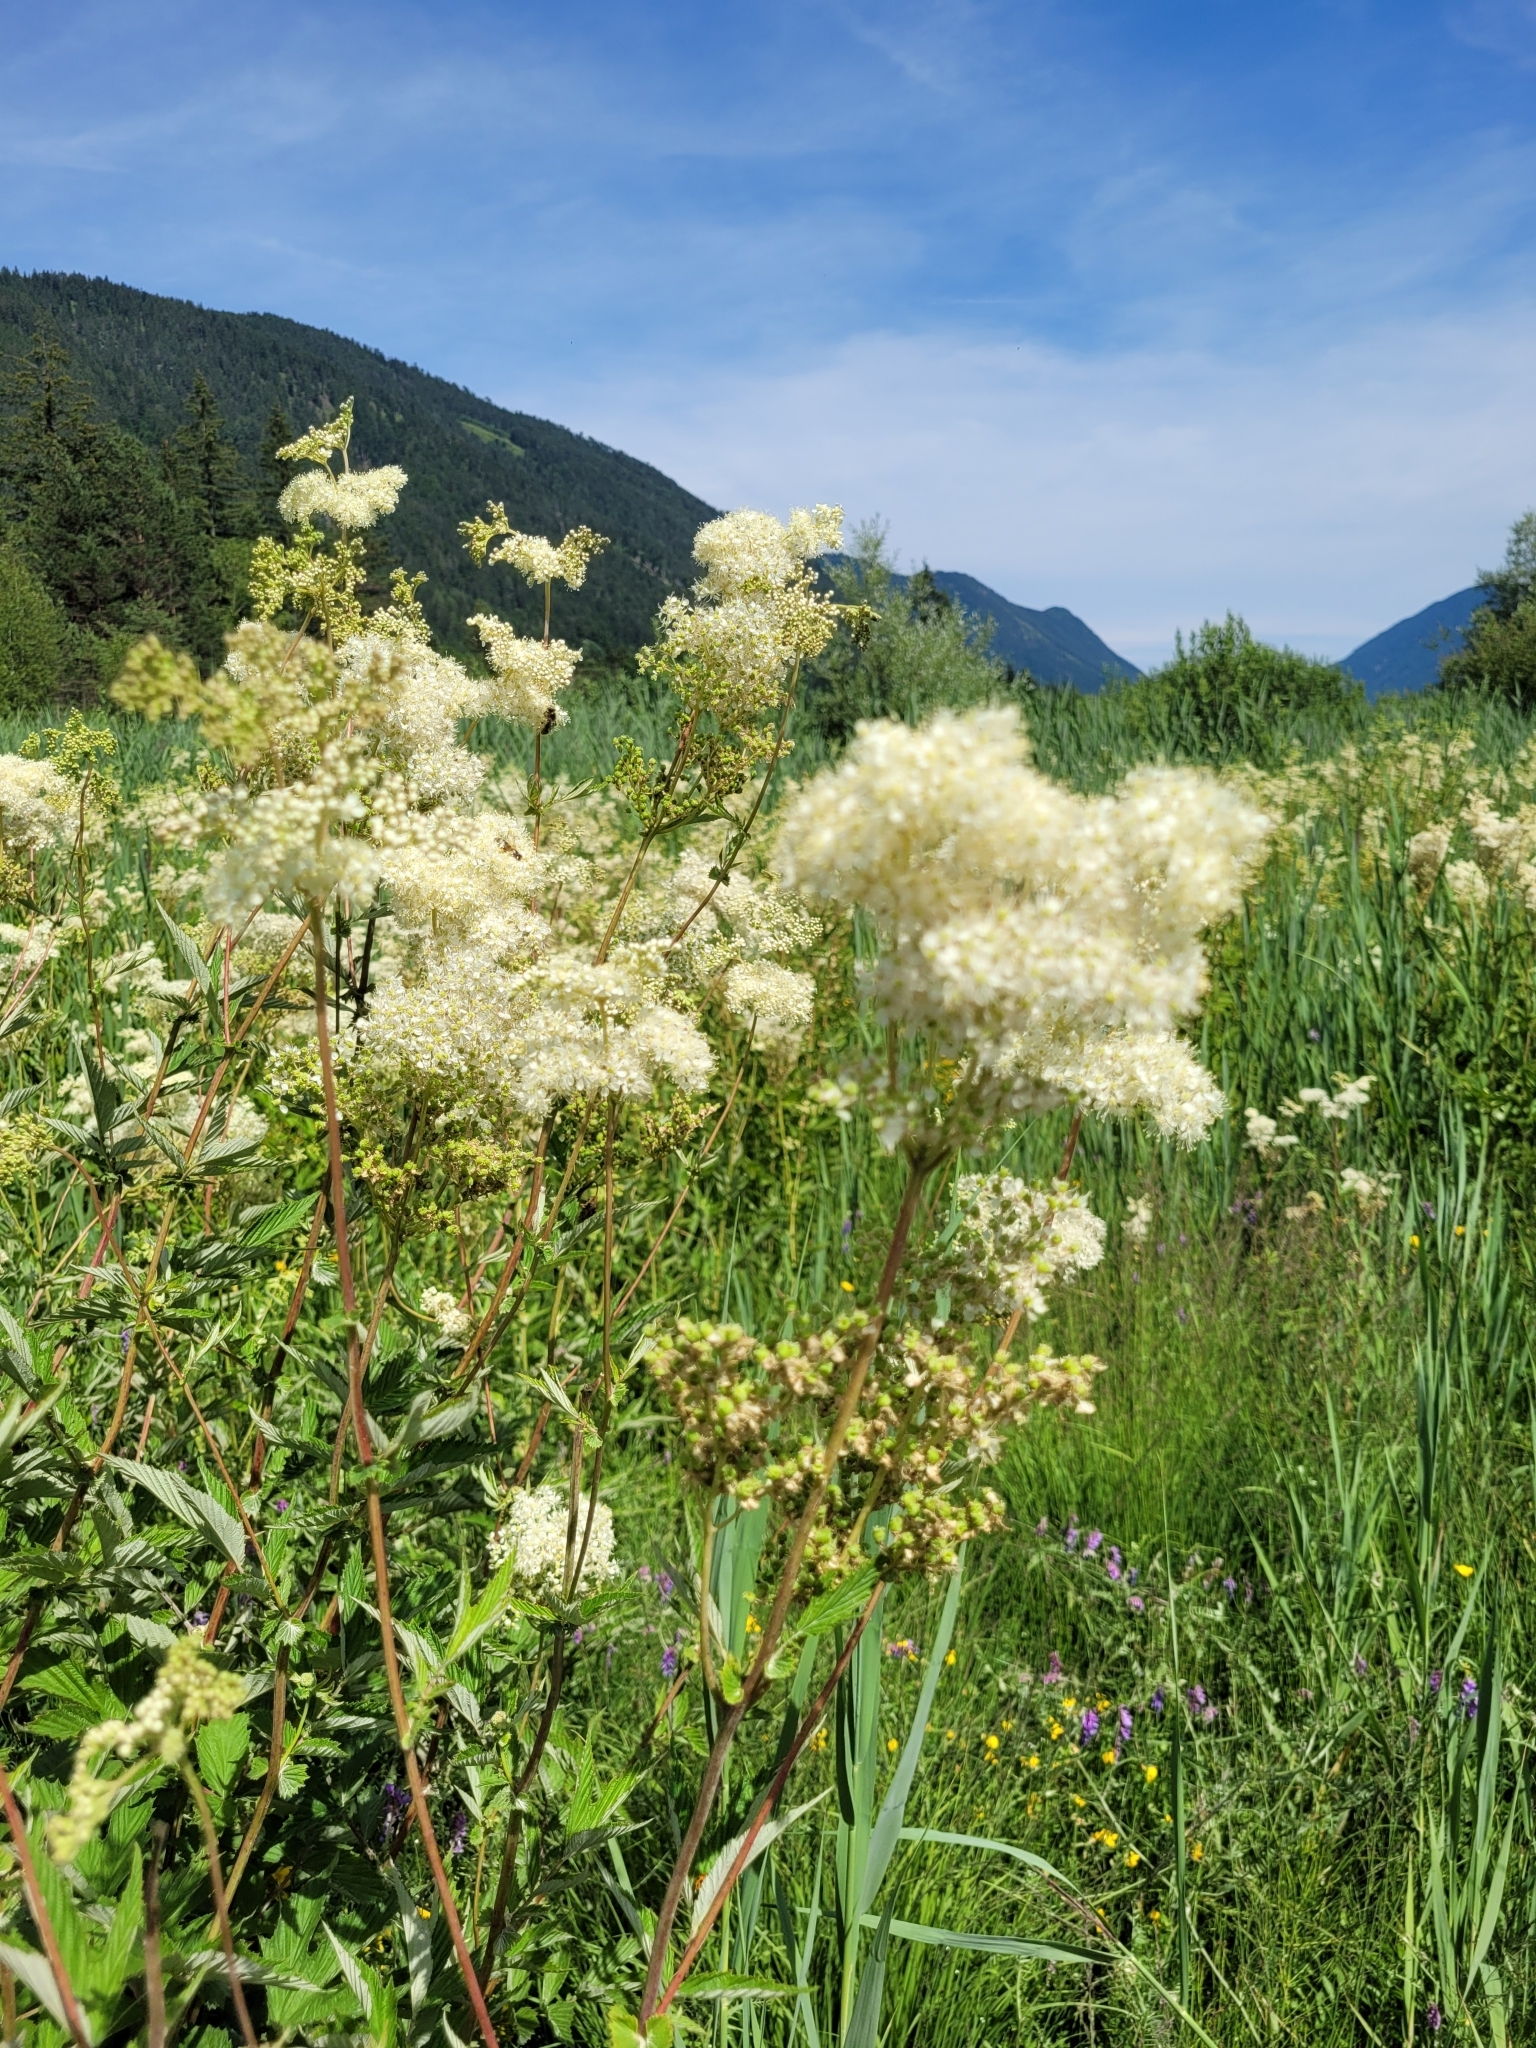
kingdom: Plantae
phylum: Tracheophyta
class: Magnoliopsida
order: Rosales
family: Rosaceae
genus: Filipendula
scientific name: Filipendula ulmaria
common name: Meadowsweet
